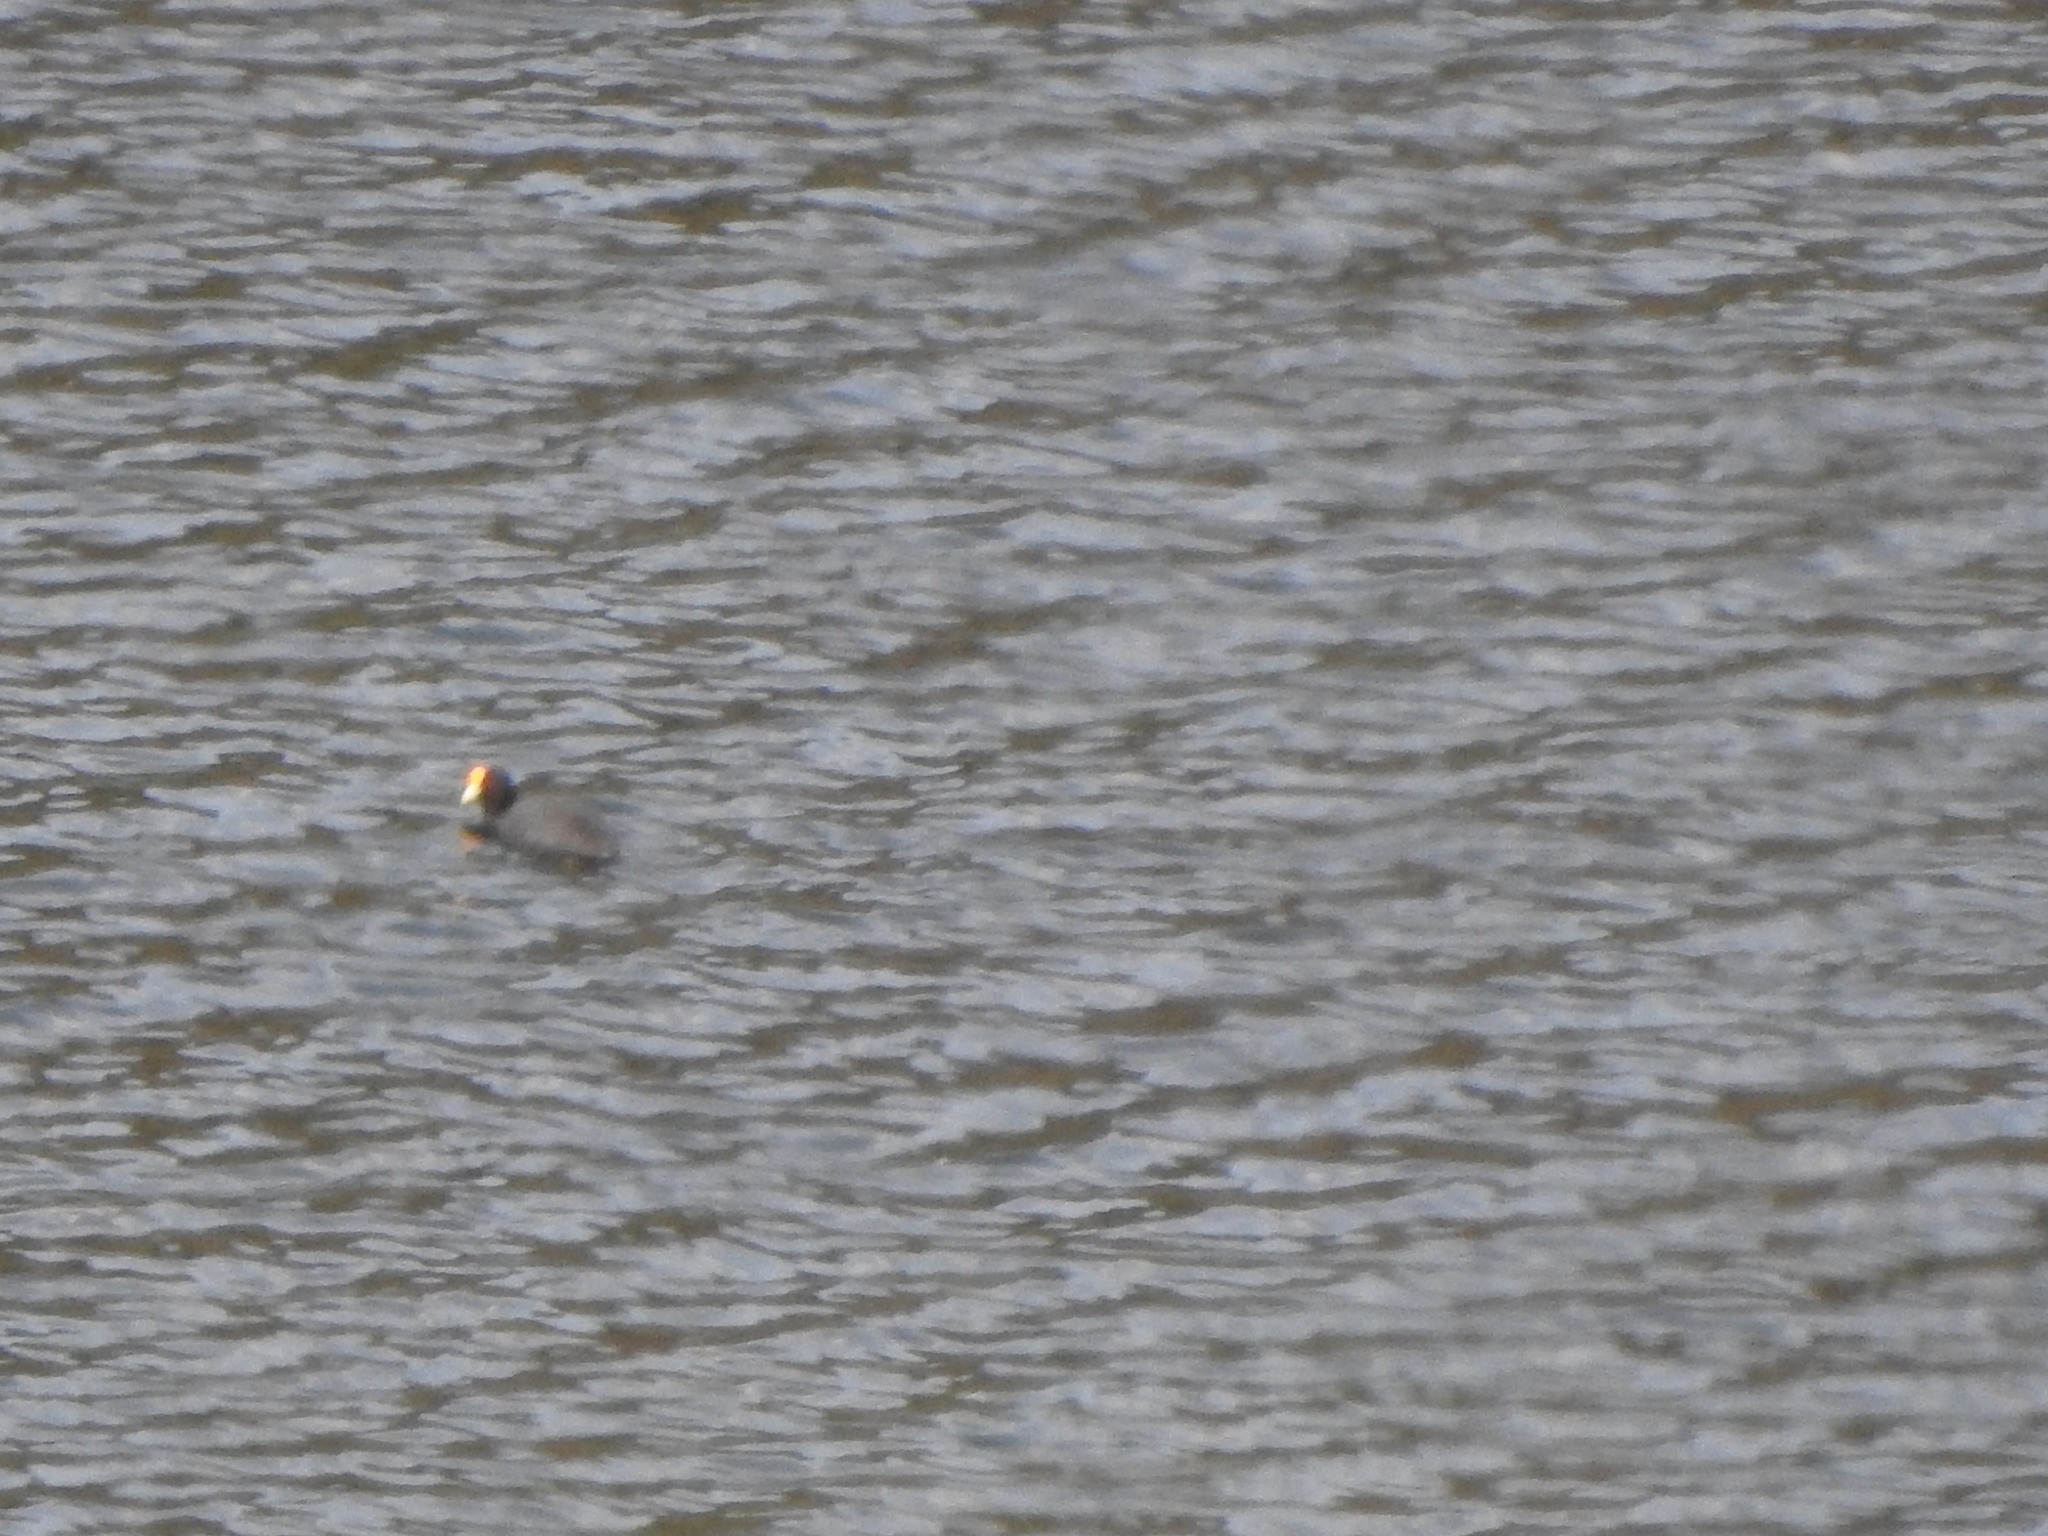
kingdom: Animalia
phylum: Chordata
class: Aves
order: Gruiformes
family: Rallidae
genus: Fulica
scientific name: Fulica leucoptera
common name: White-winged coot
